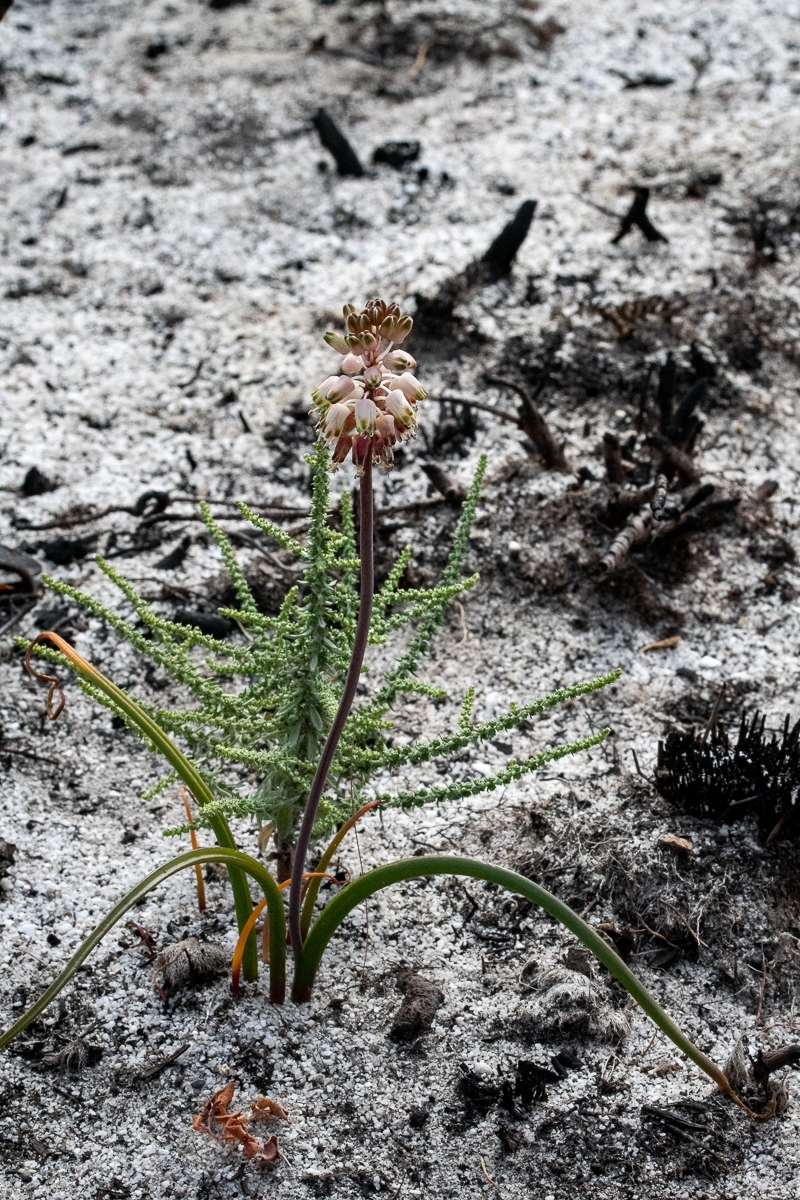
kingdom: Plantae
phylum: Tracheophyta
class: Liliopsida
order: Asparagales
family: Asparagaceae
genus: Lachenalia
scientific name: Lachenalia montana
